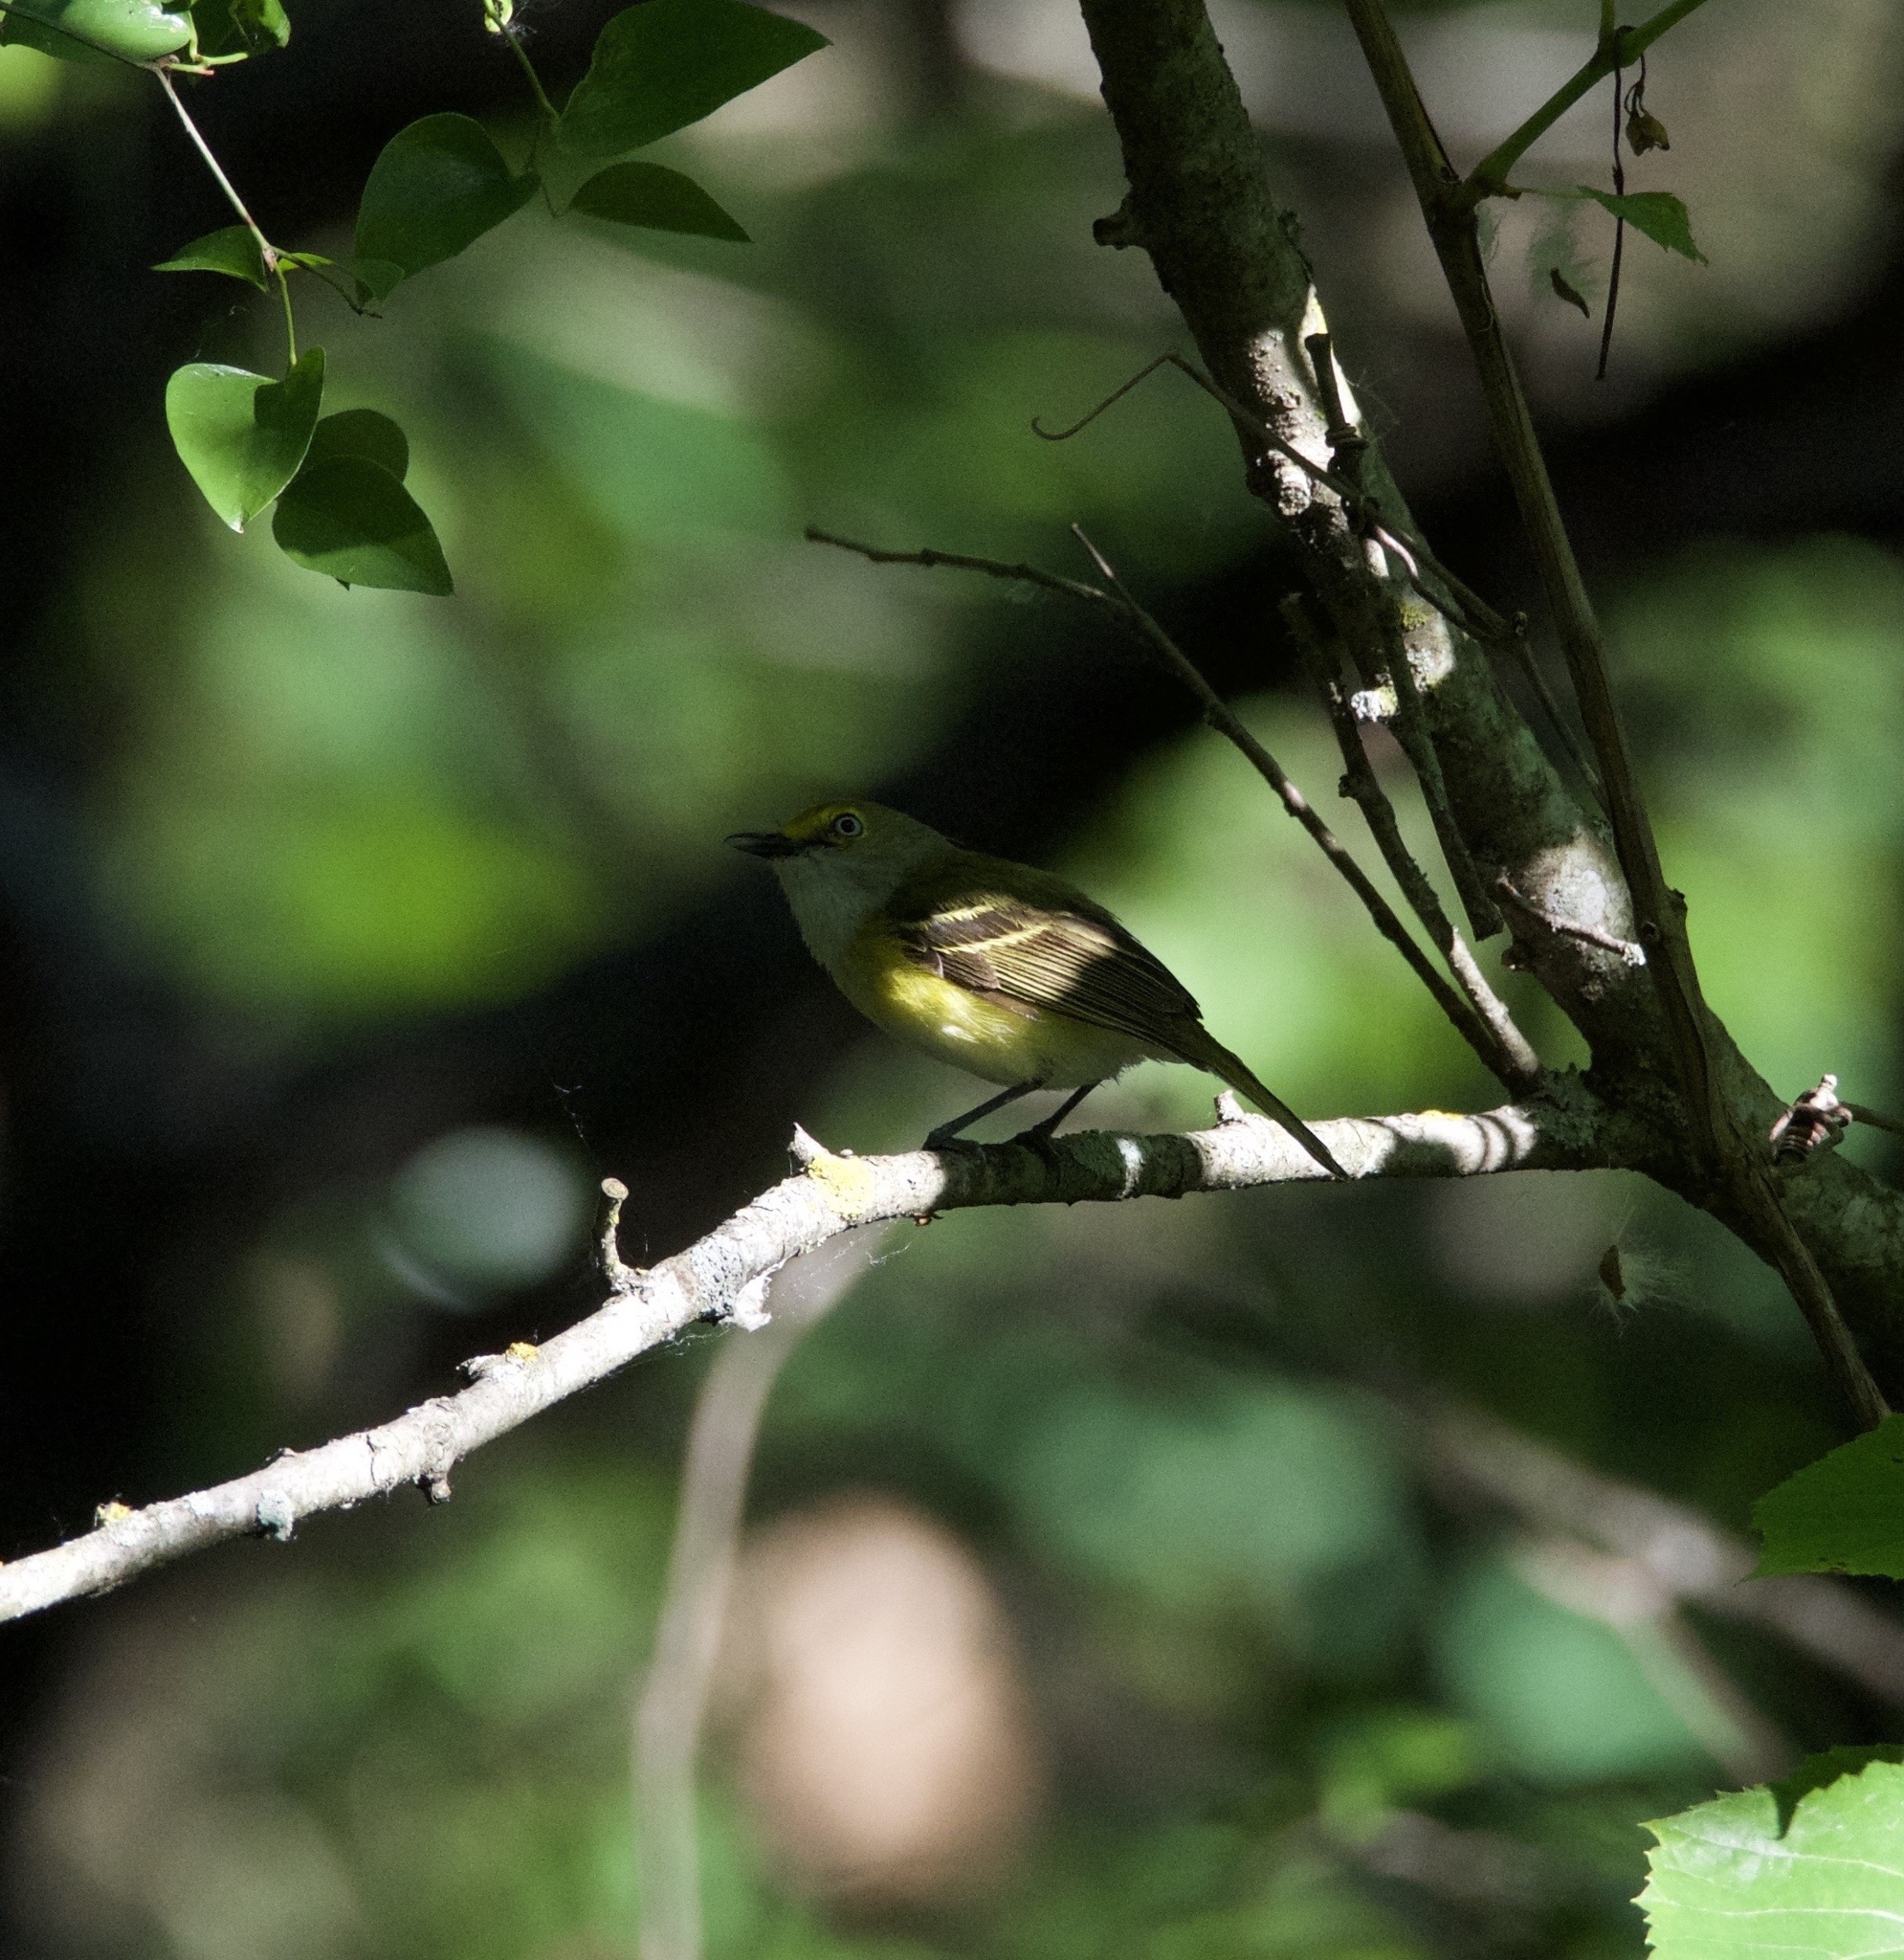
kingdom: Animalia
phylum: Chordata
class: Aves
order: Passeriformes
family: Vireonidae
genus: Vireo
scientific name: Vireo griseus
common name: White-eyed vireo
